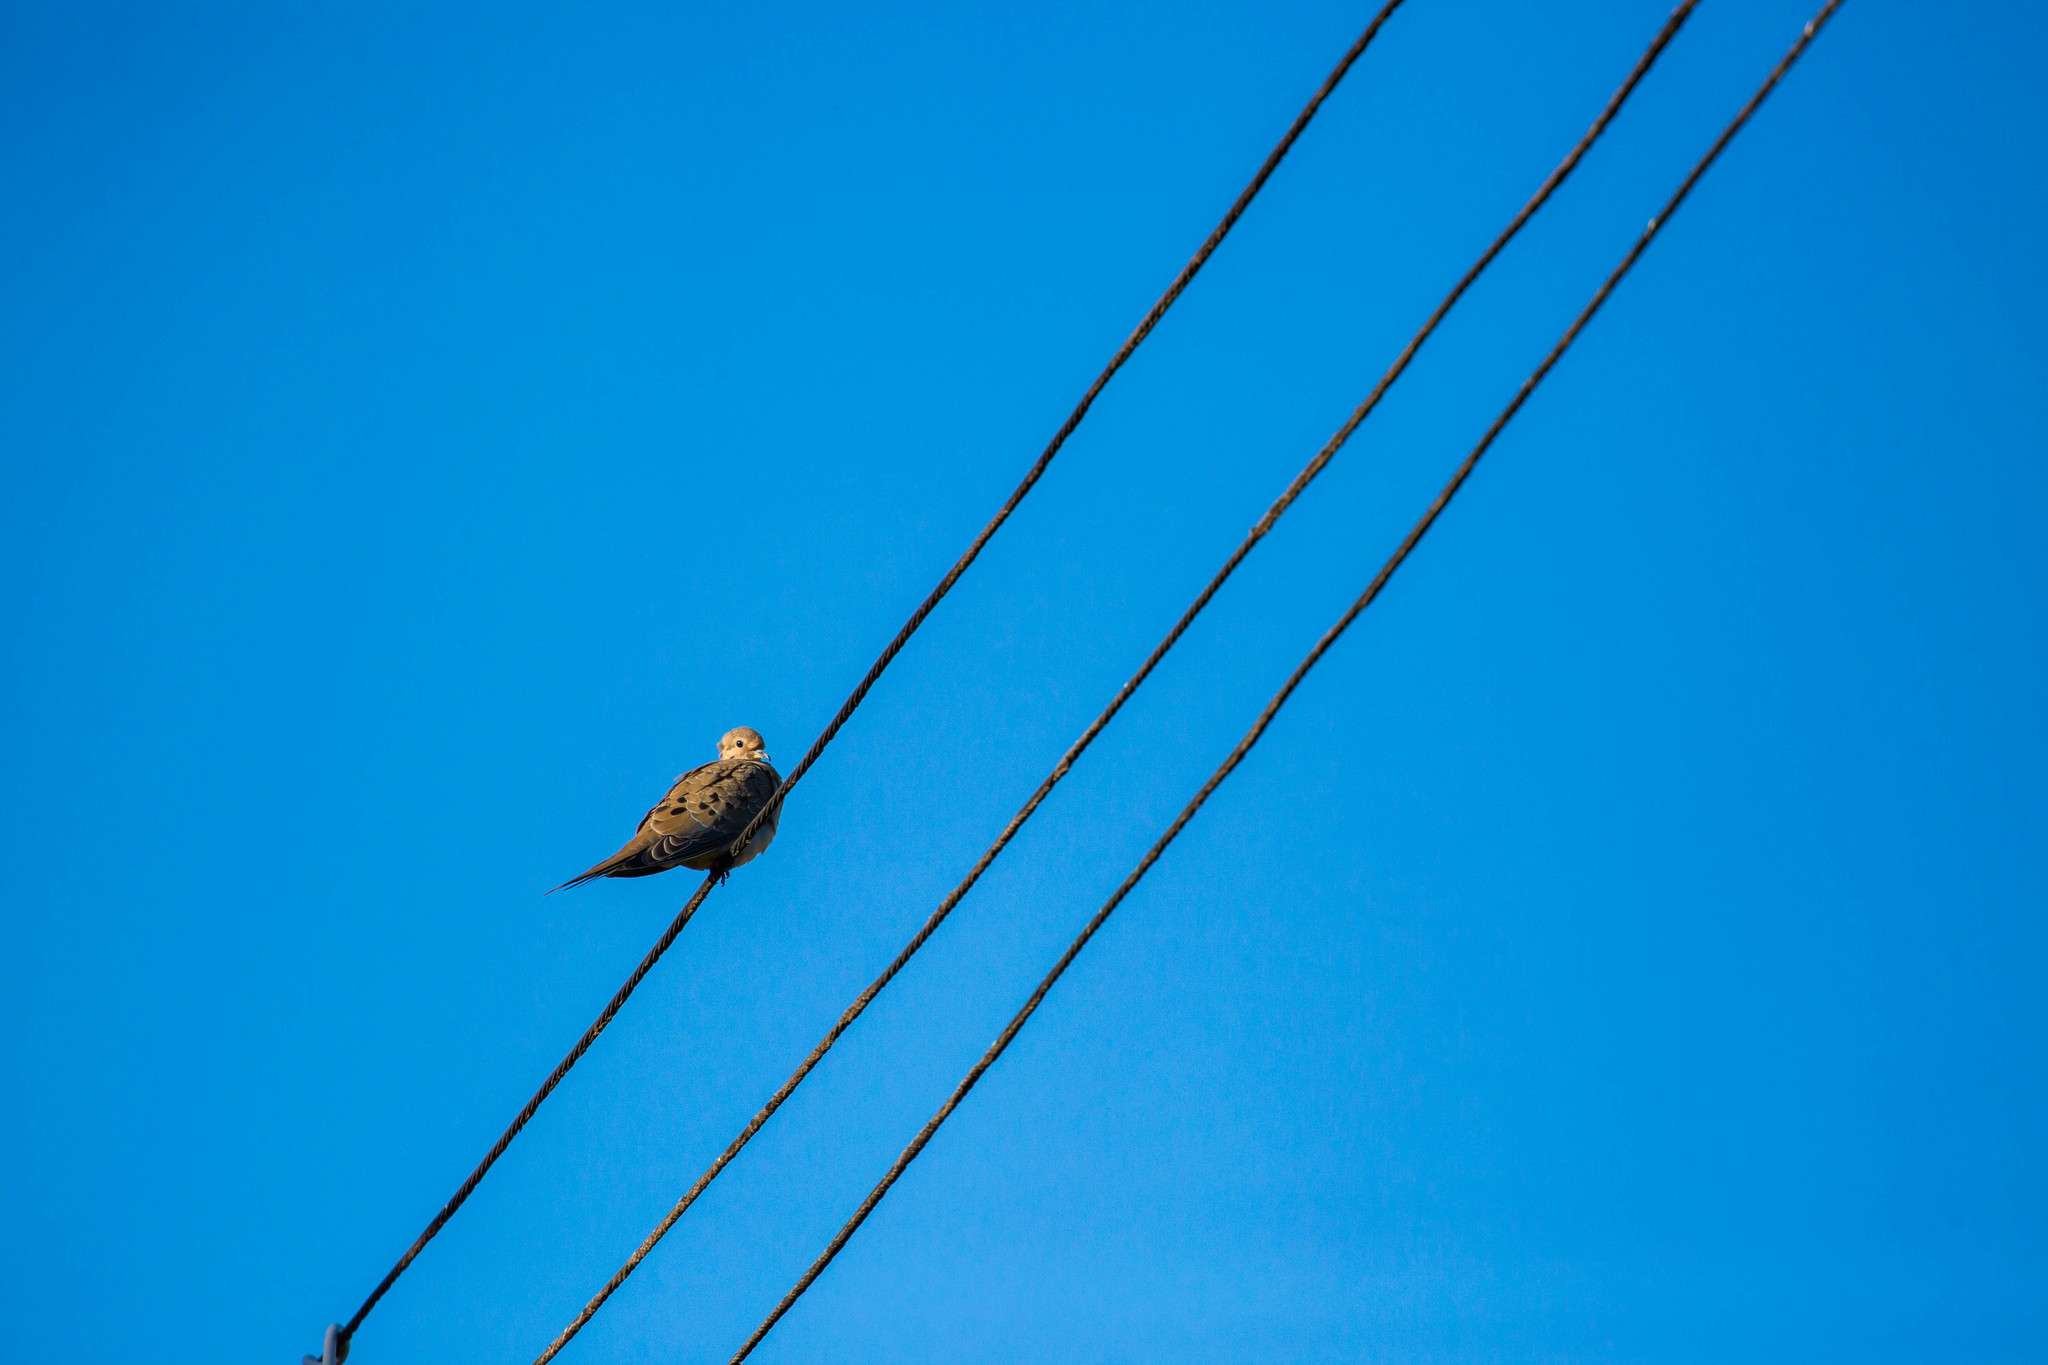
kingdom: Animalia
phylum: Chordata
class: Aves
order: Columbiformes
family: Columbidae
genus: Zenaida
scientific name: Zenaida macroura
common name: Mourning dove
